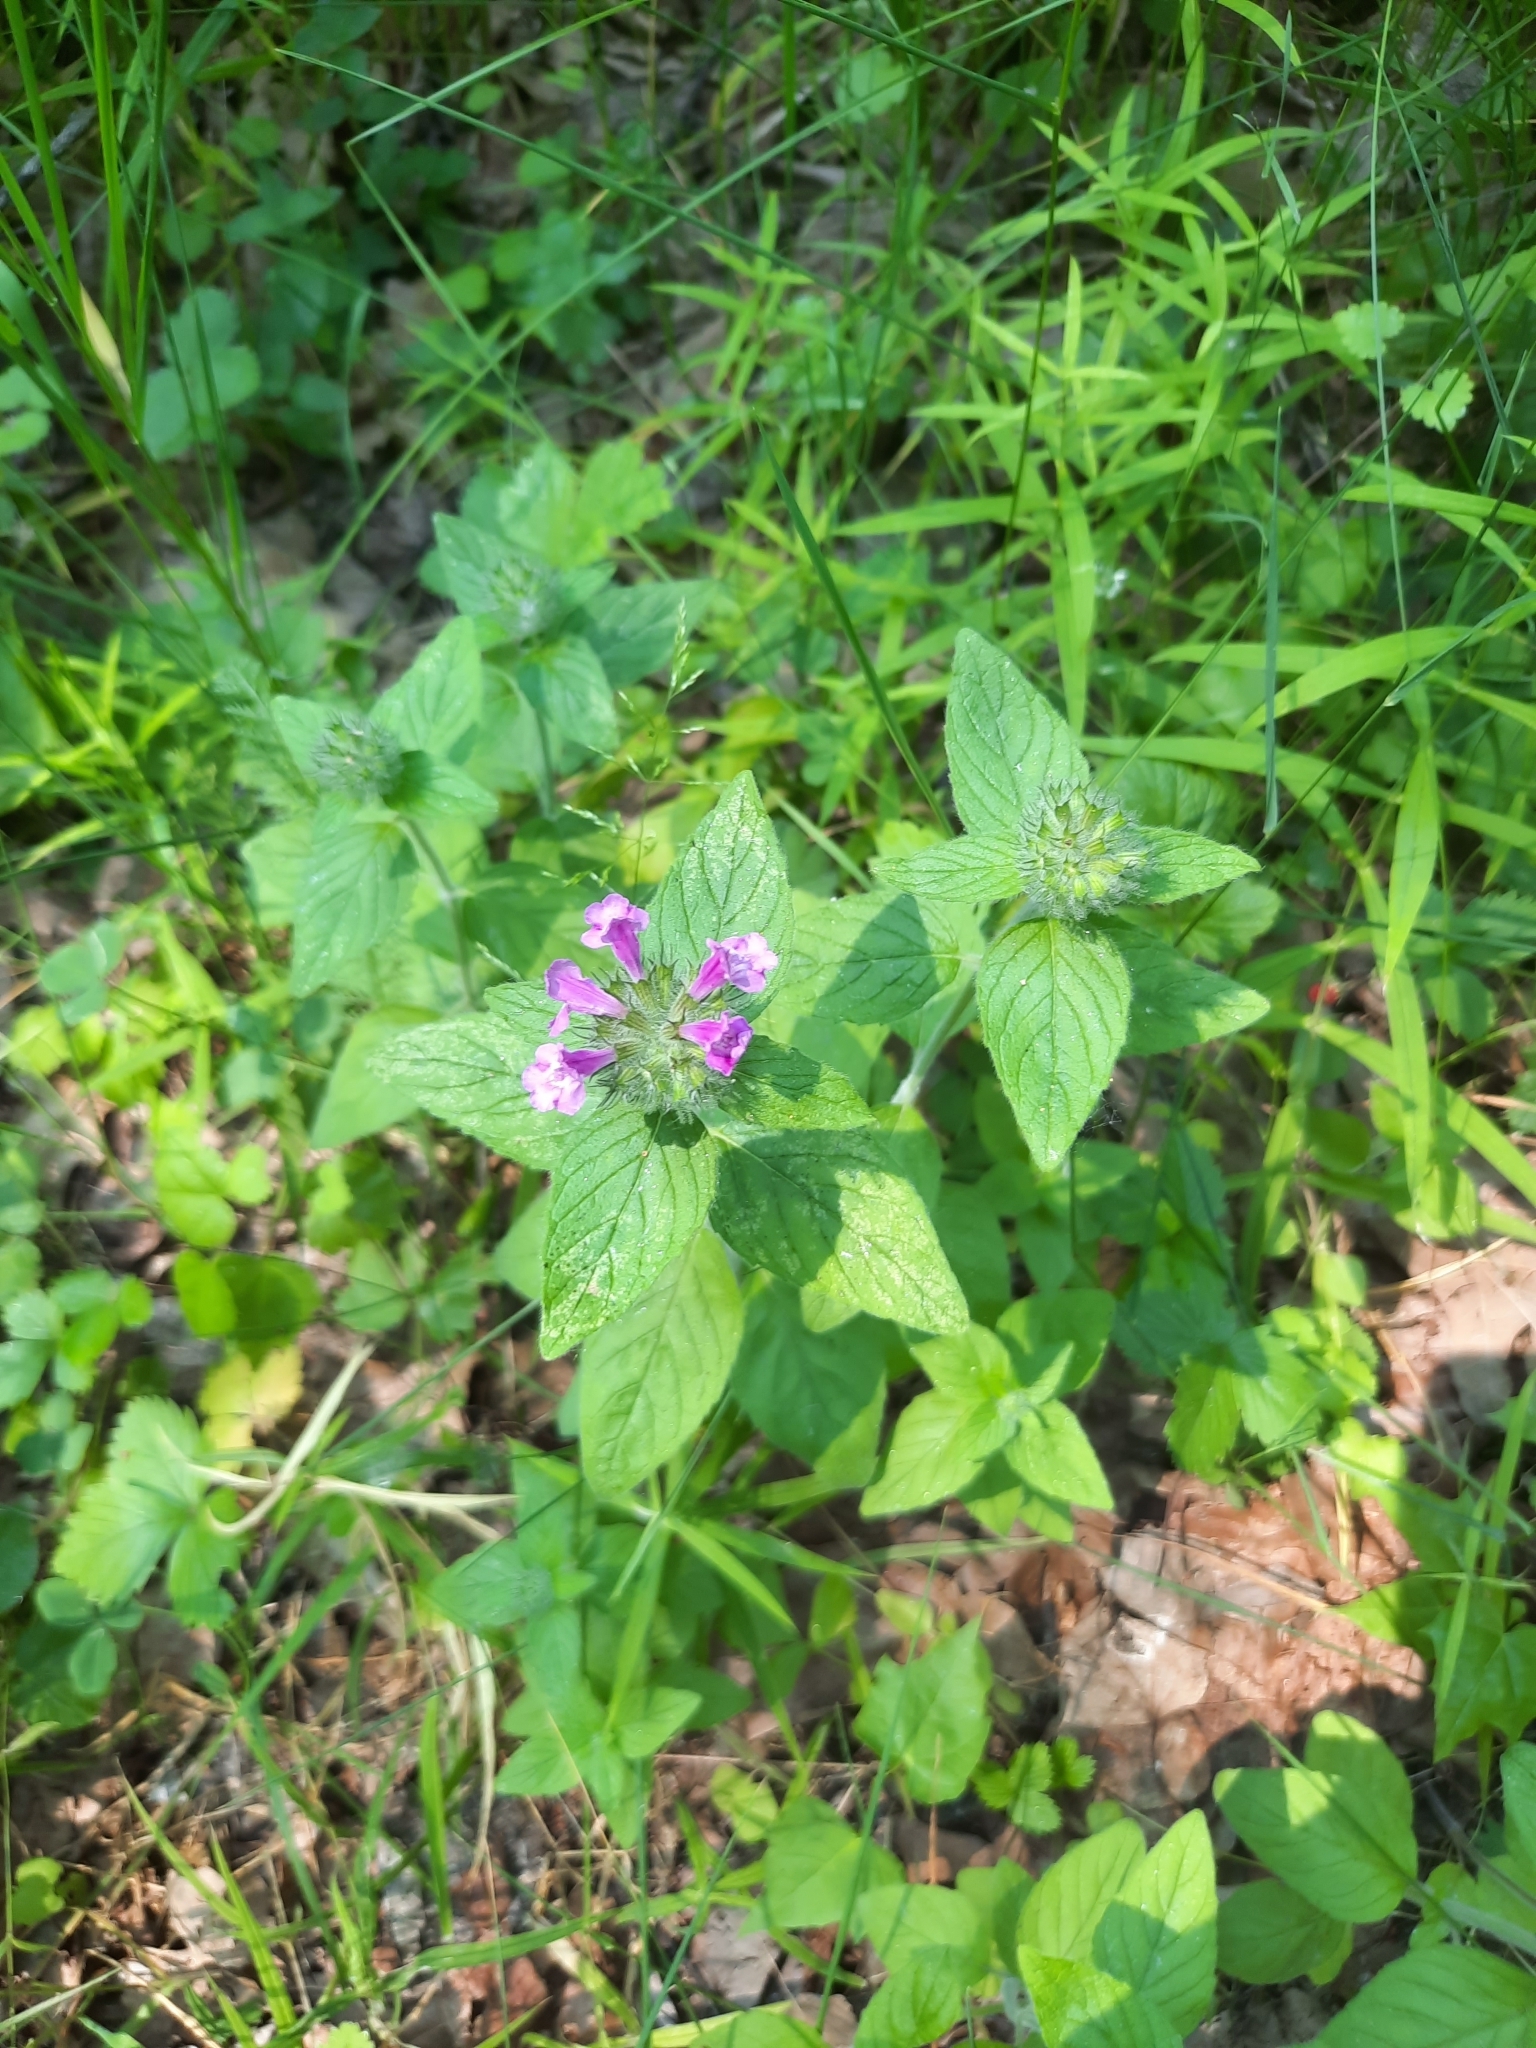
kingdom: Plantae
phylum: Tracheophyta
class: Magnoliopsida
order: Lamiales
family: Lamiaceae
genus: Clinopodium
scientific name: Clinopodium vulgare
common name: Wild basil
